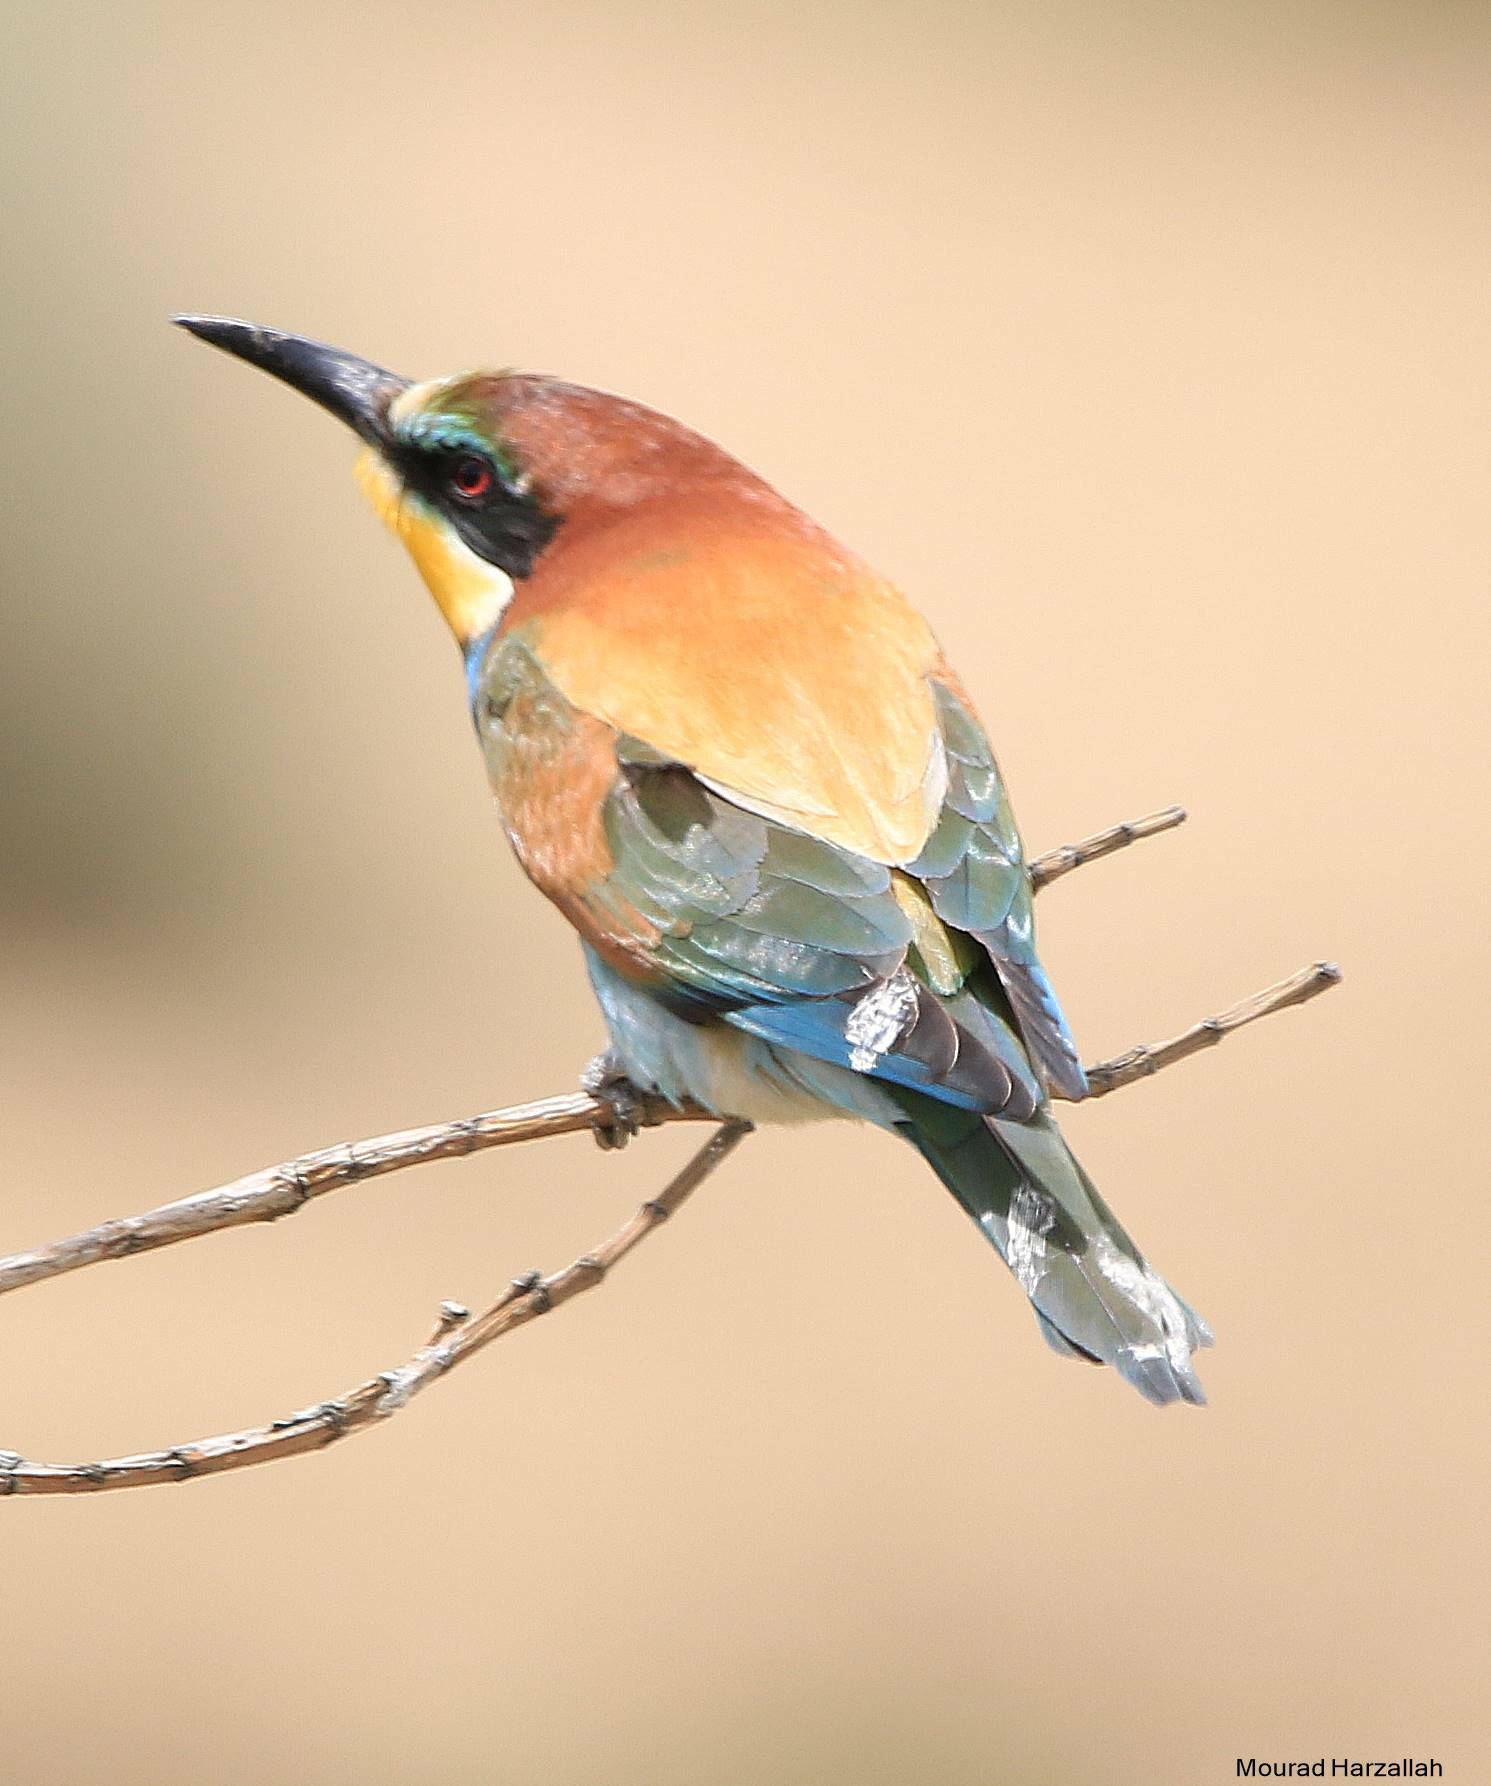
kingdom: Animalia
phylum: Chordata
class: Aves
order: Coraciiformes
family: Meropidae
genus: Merops
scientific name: Merops apiaster
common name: European bee-eater
